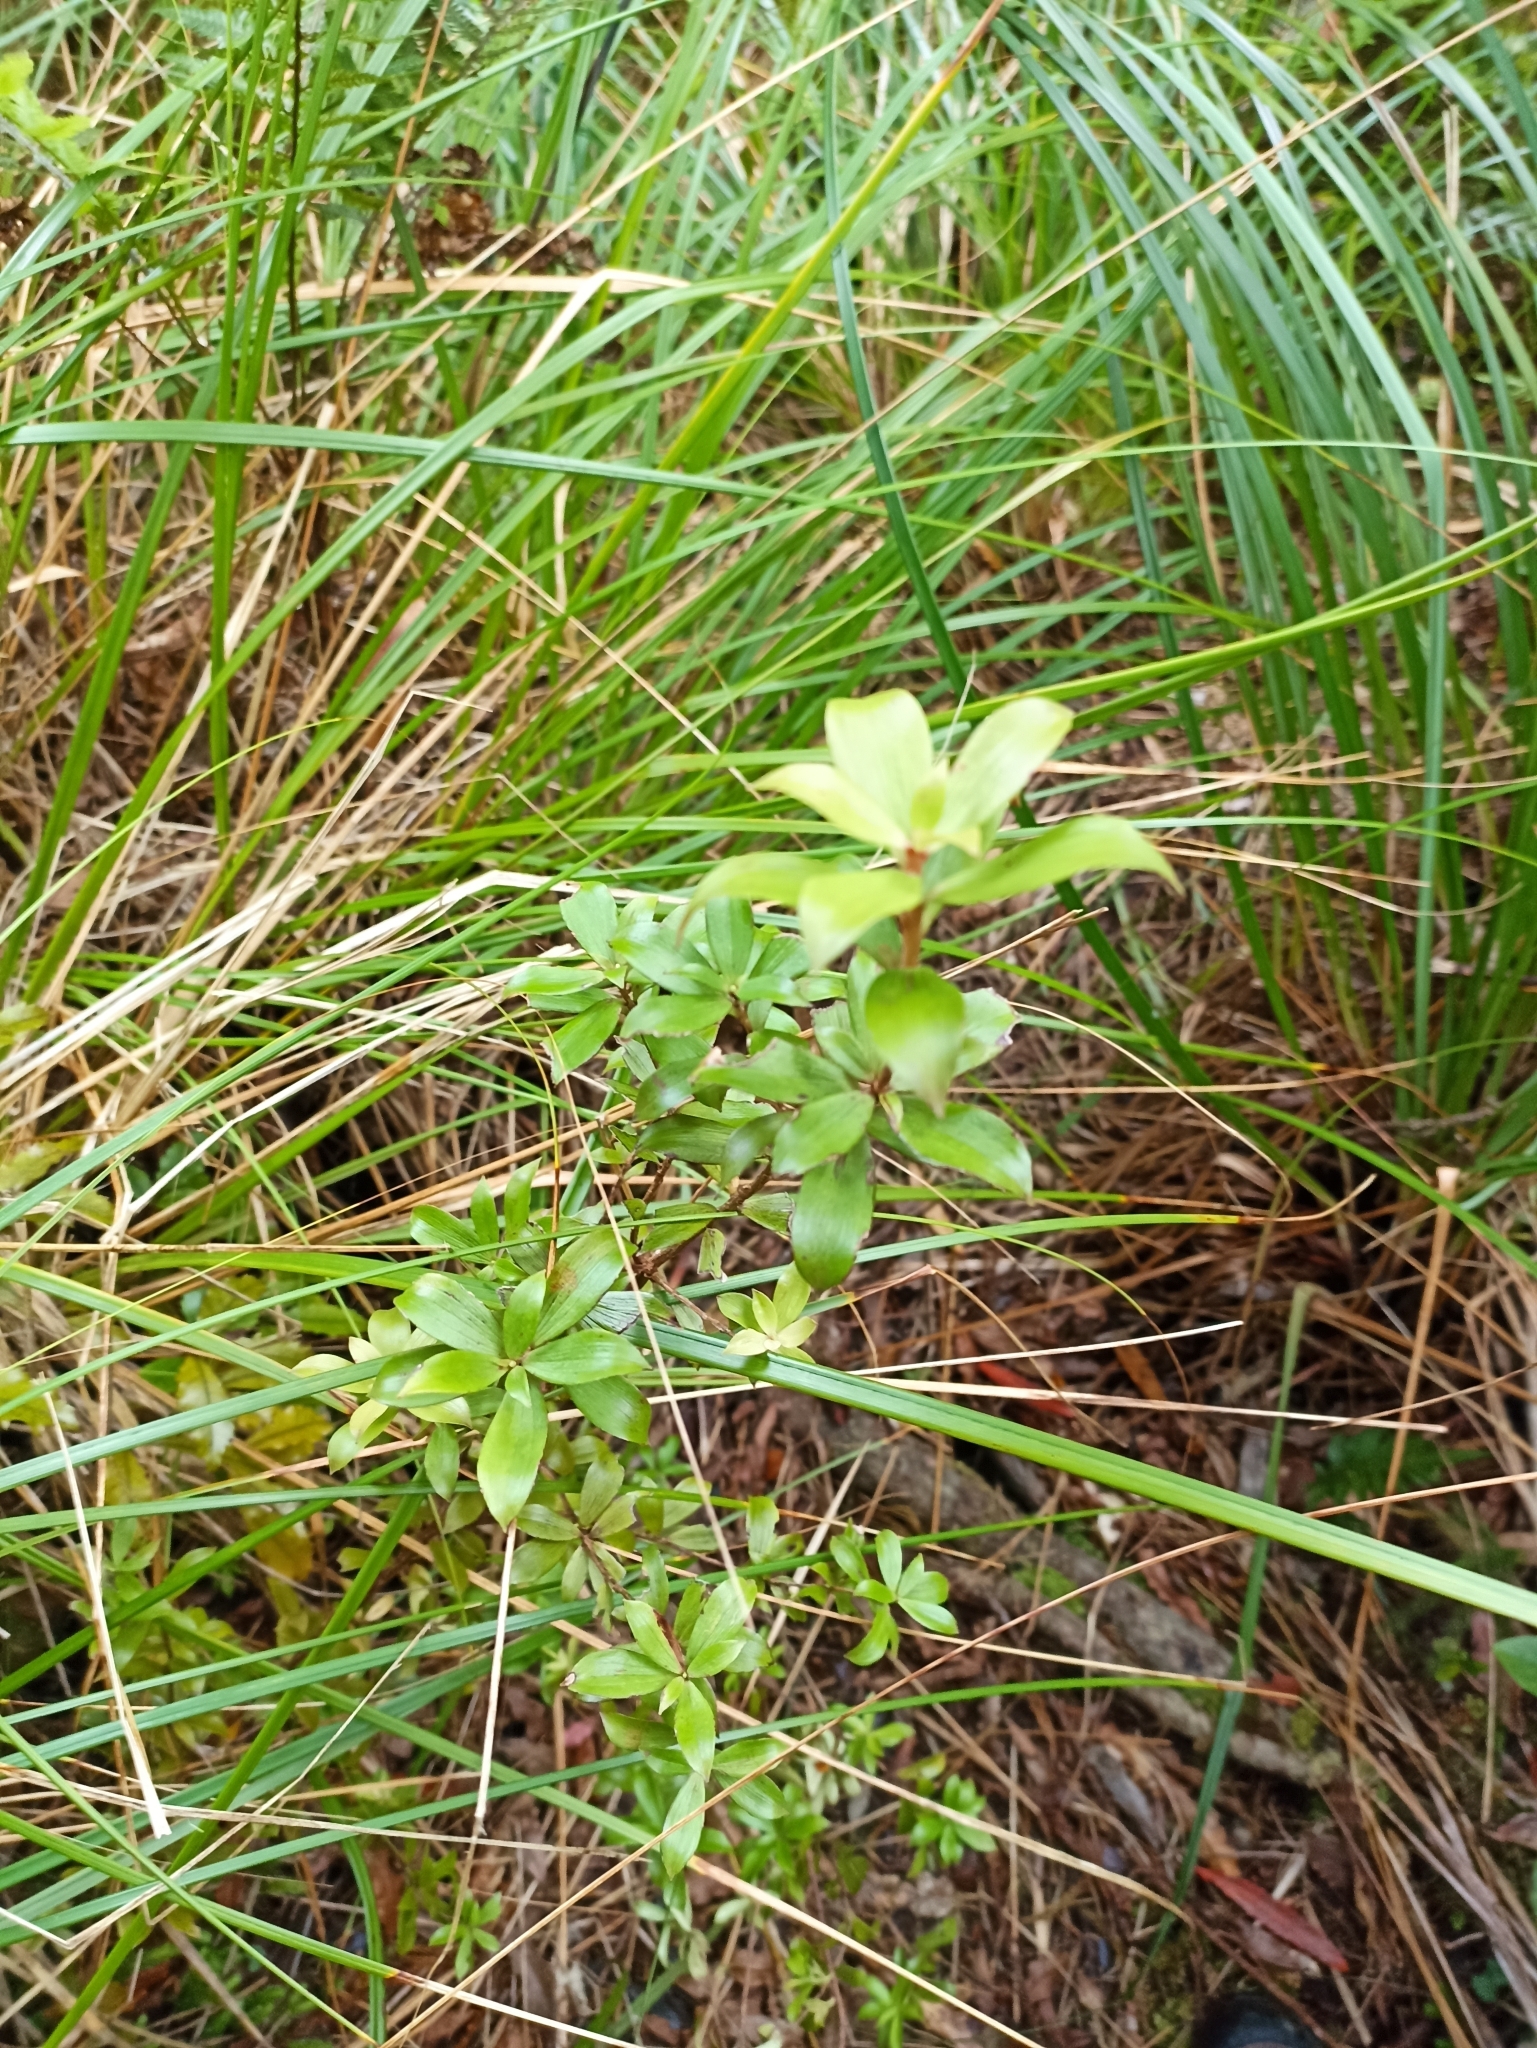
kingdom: Plantae
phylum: Tracheophyta
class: Magnoliopsida
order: Ericales
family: Ericaceae
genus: Archeria
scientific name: Archeria racemosa
